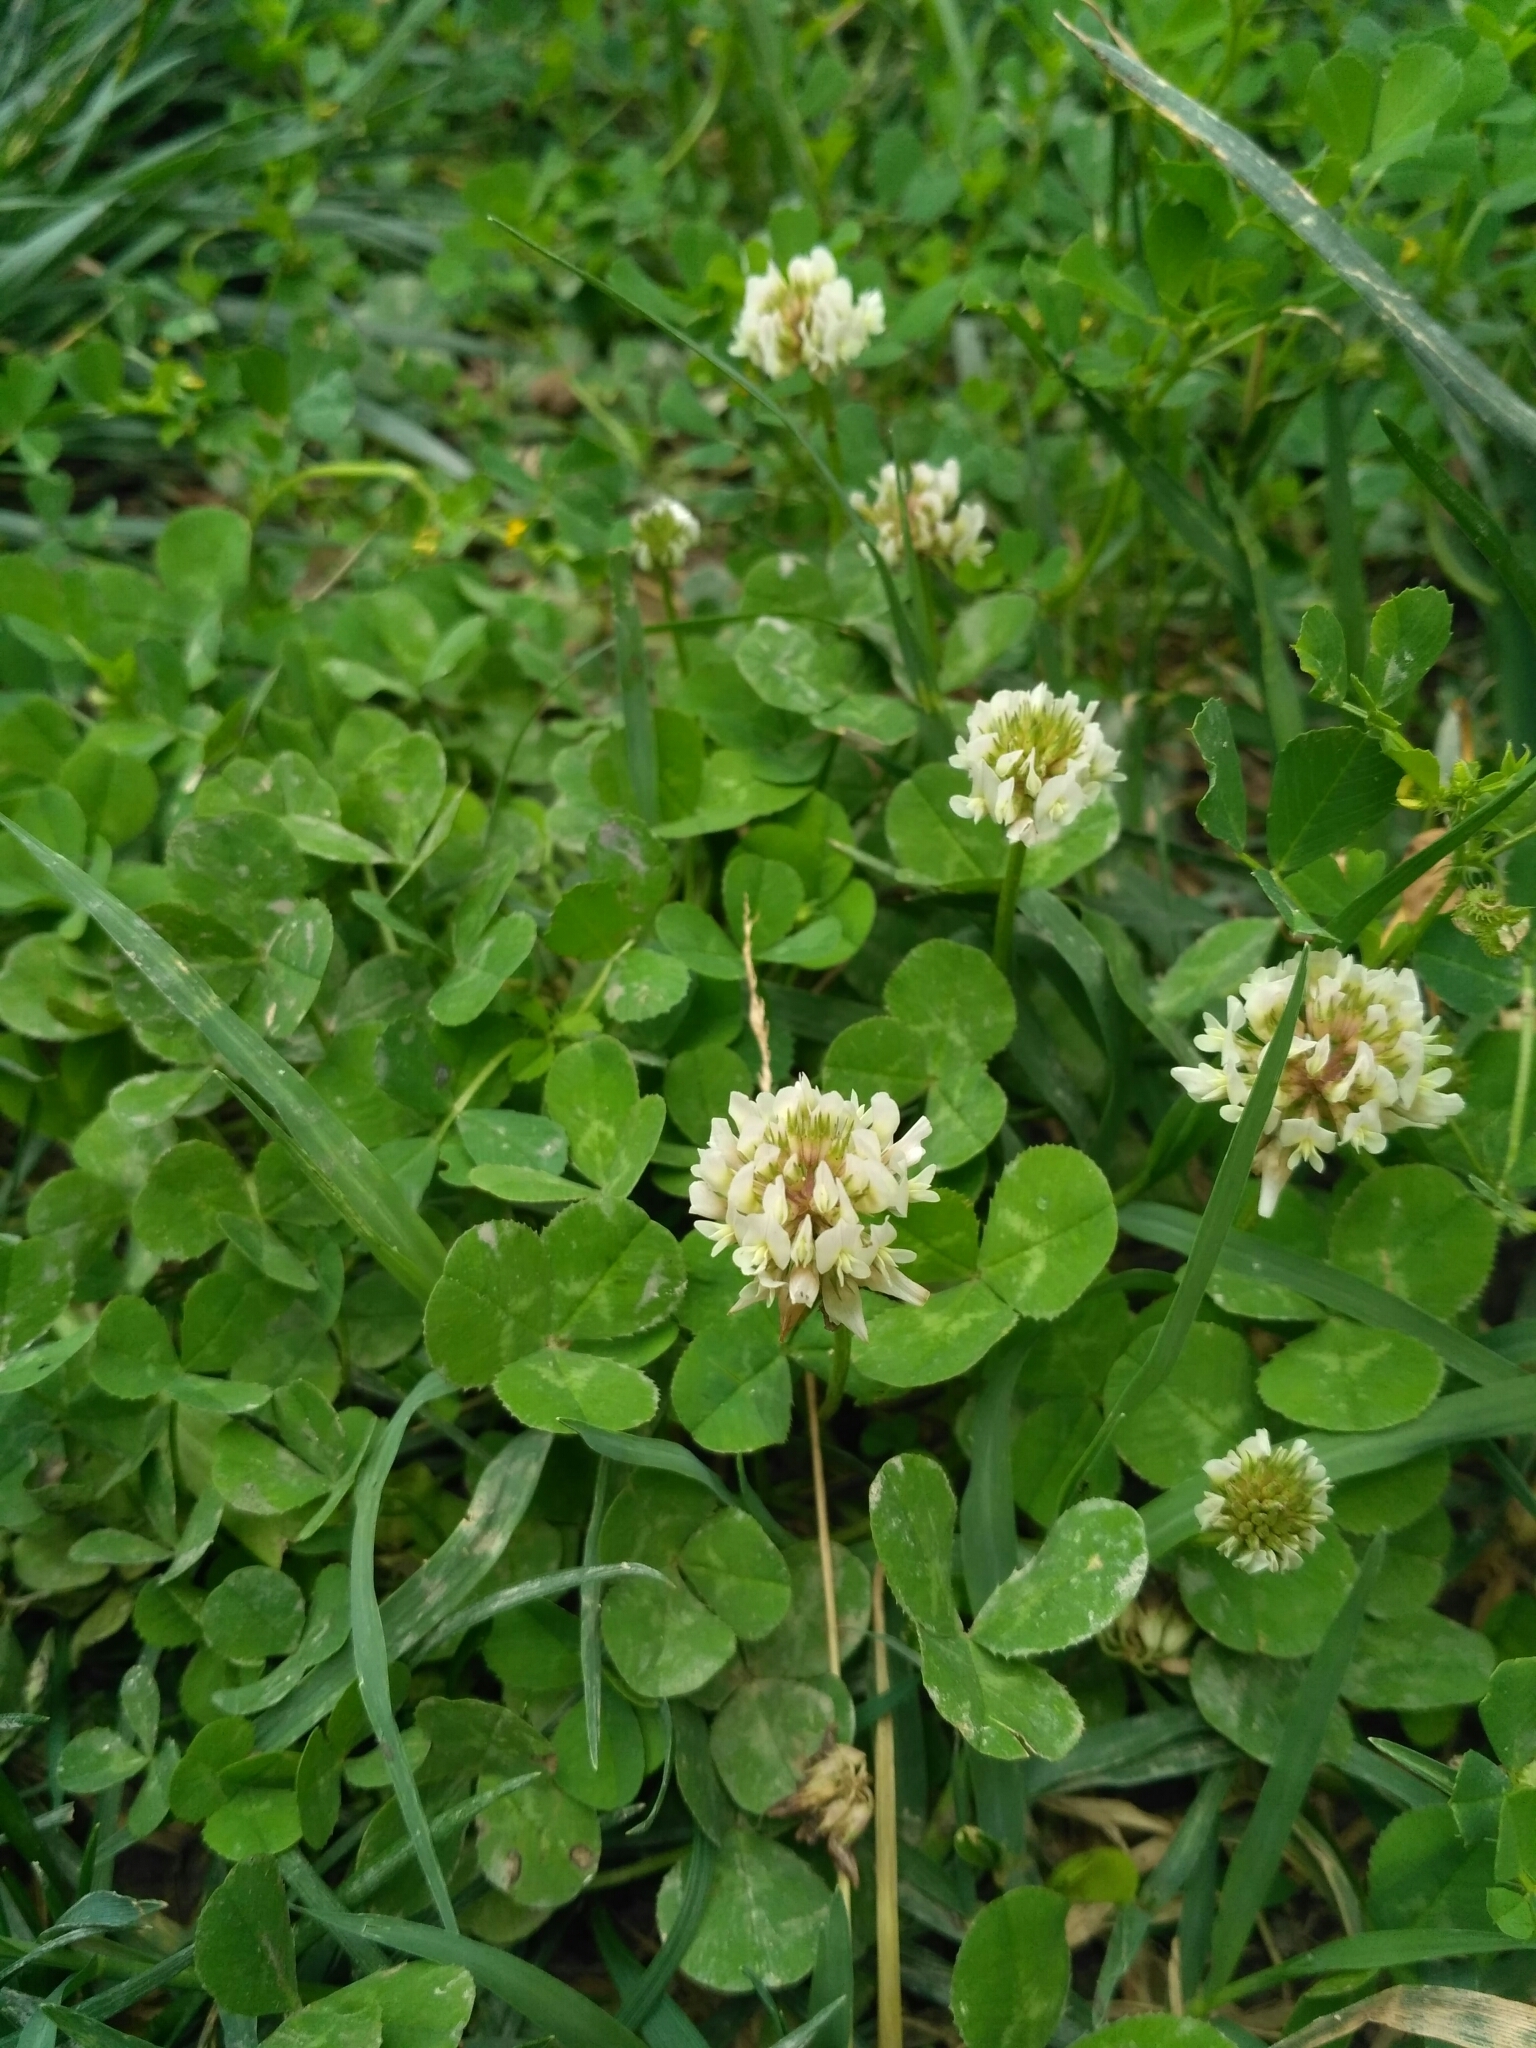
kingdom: Plantae
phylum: Tracheophyta
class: Magnoliopsida
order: Fabales
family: Fabaceae
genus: Trifolium
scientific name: Trifolium repens
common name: White clover
